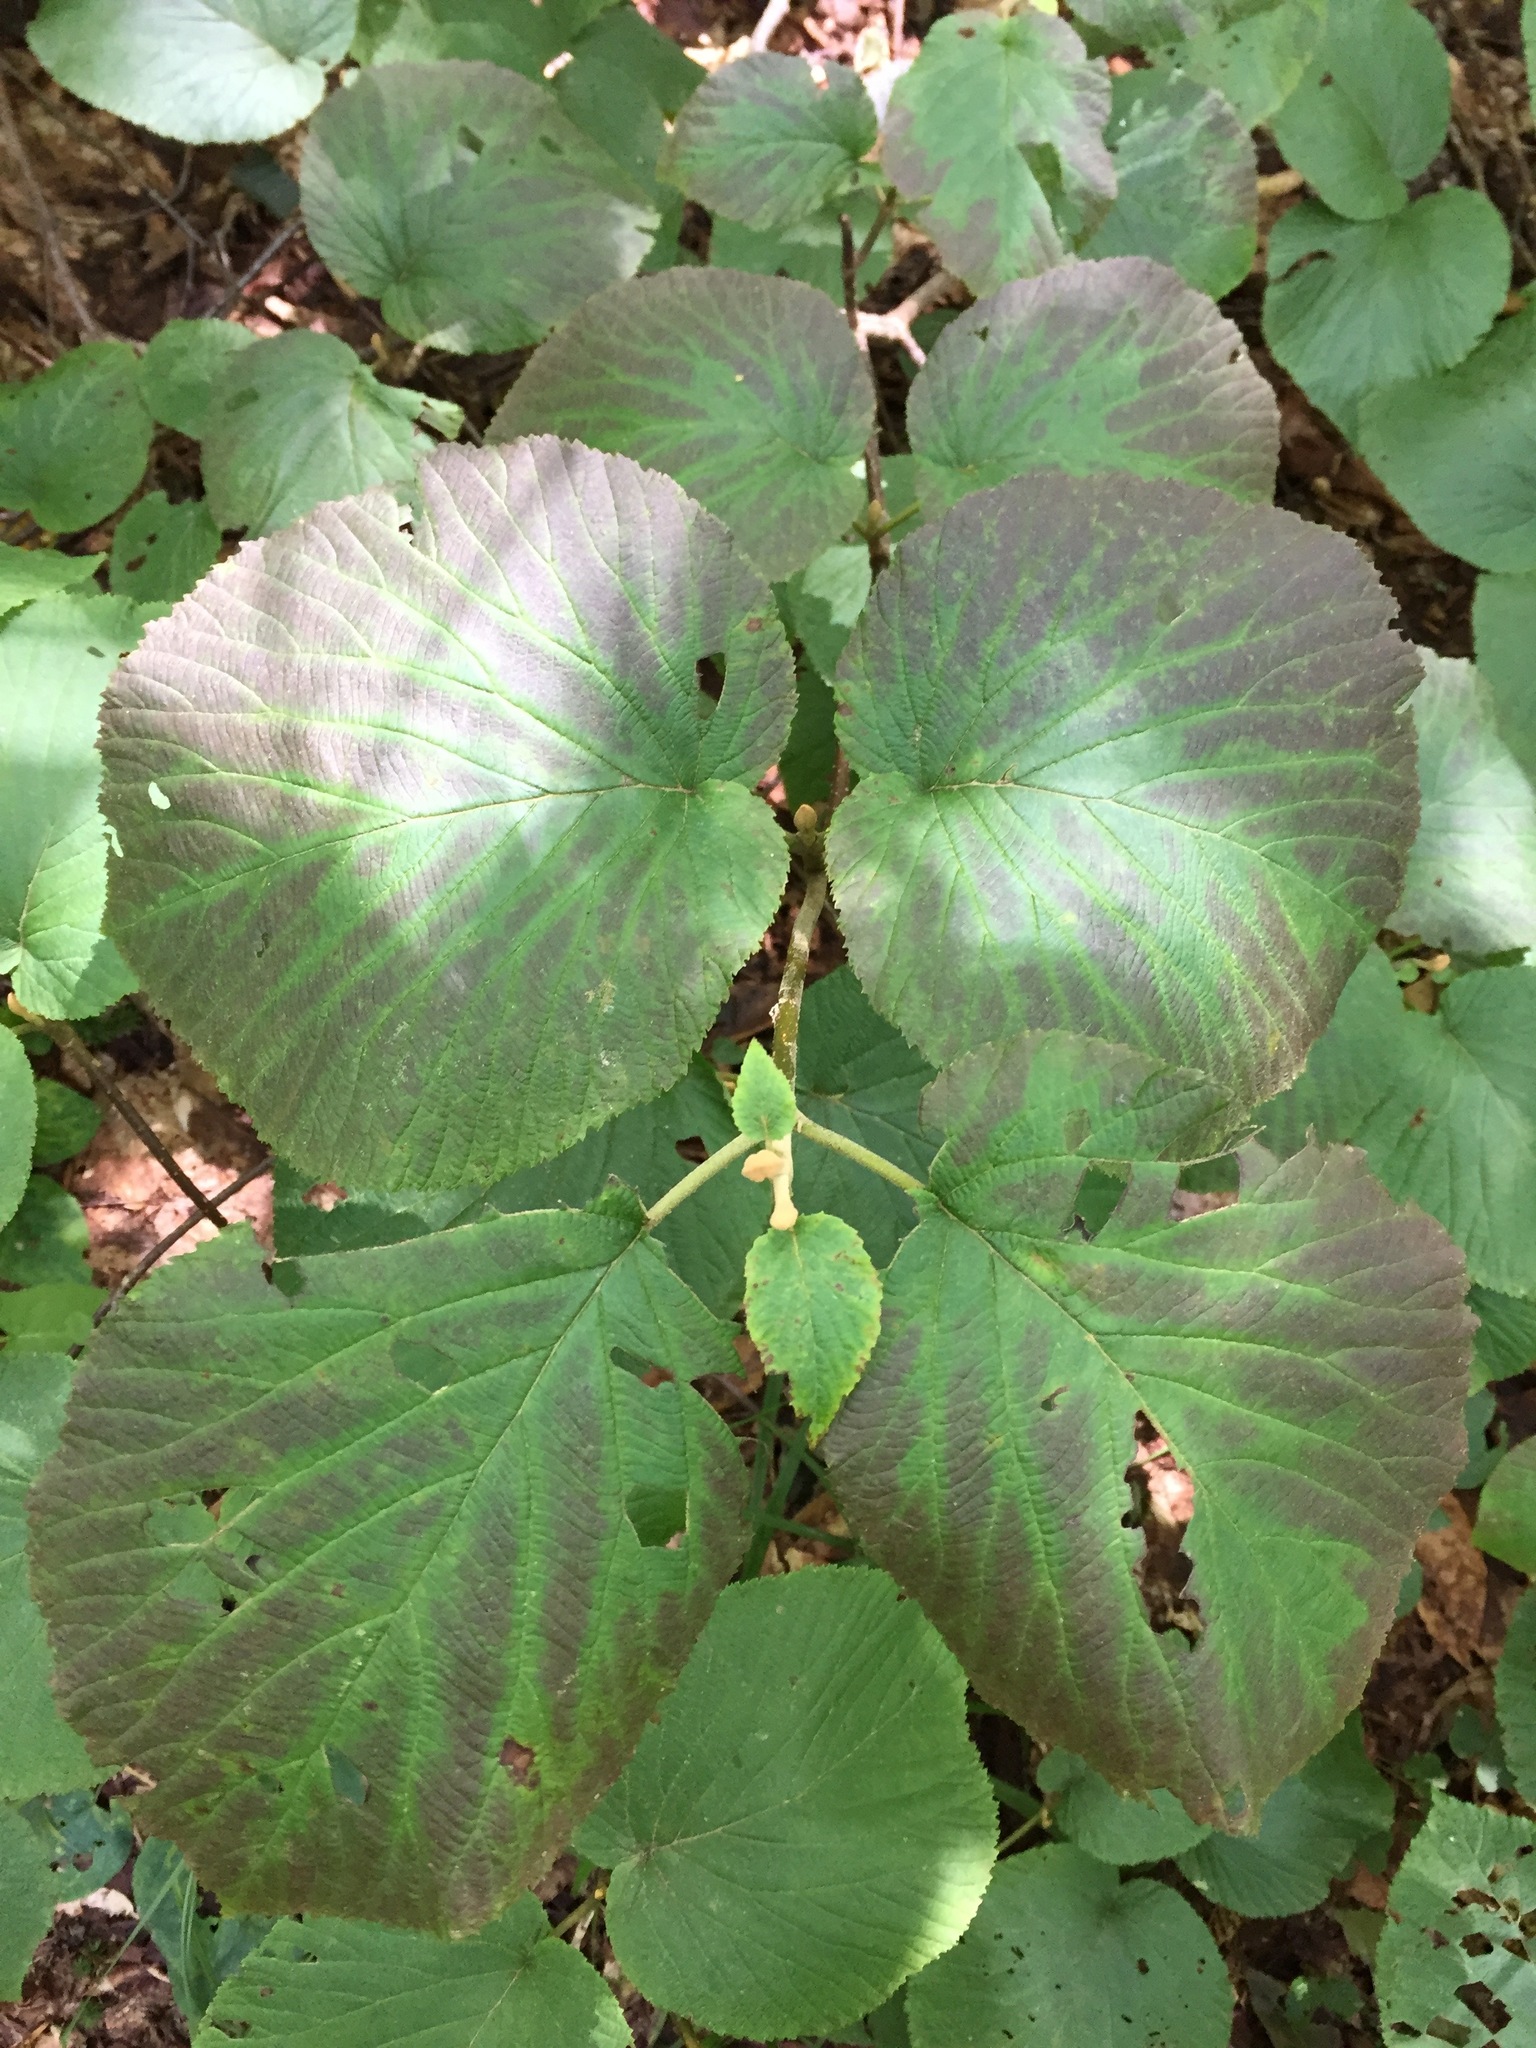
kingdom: Plantae
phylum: Tracheophyta
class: Magnoliopsida
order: Dipsacales
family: Viburnaceae
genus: Viburnum
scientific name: Viburnum lantanoides
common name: Hobblebush
